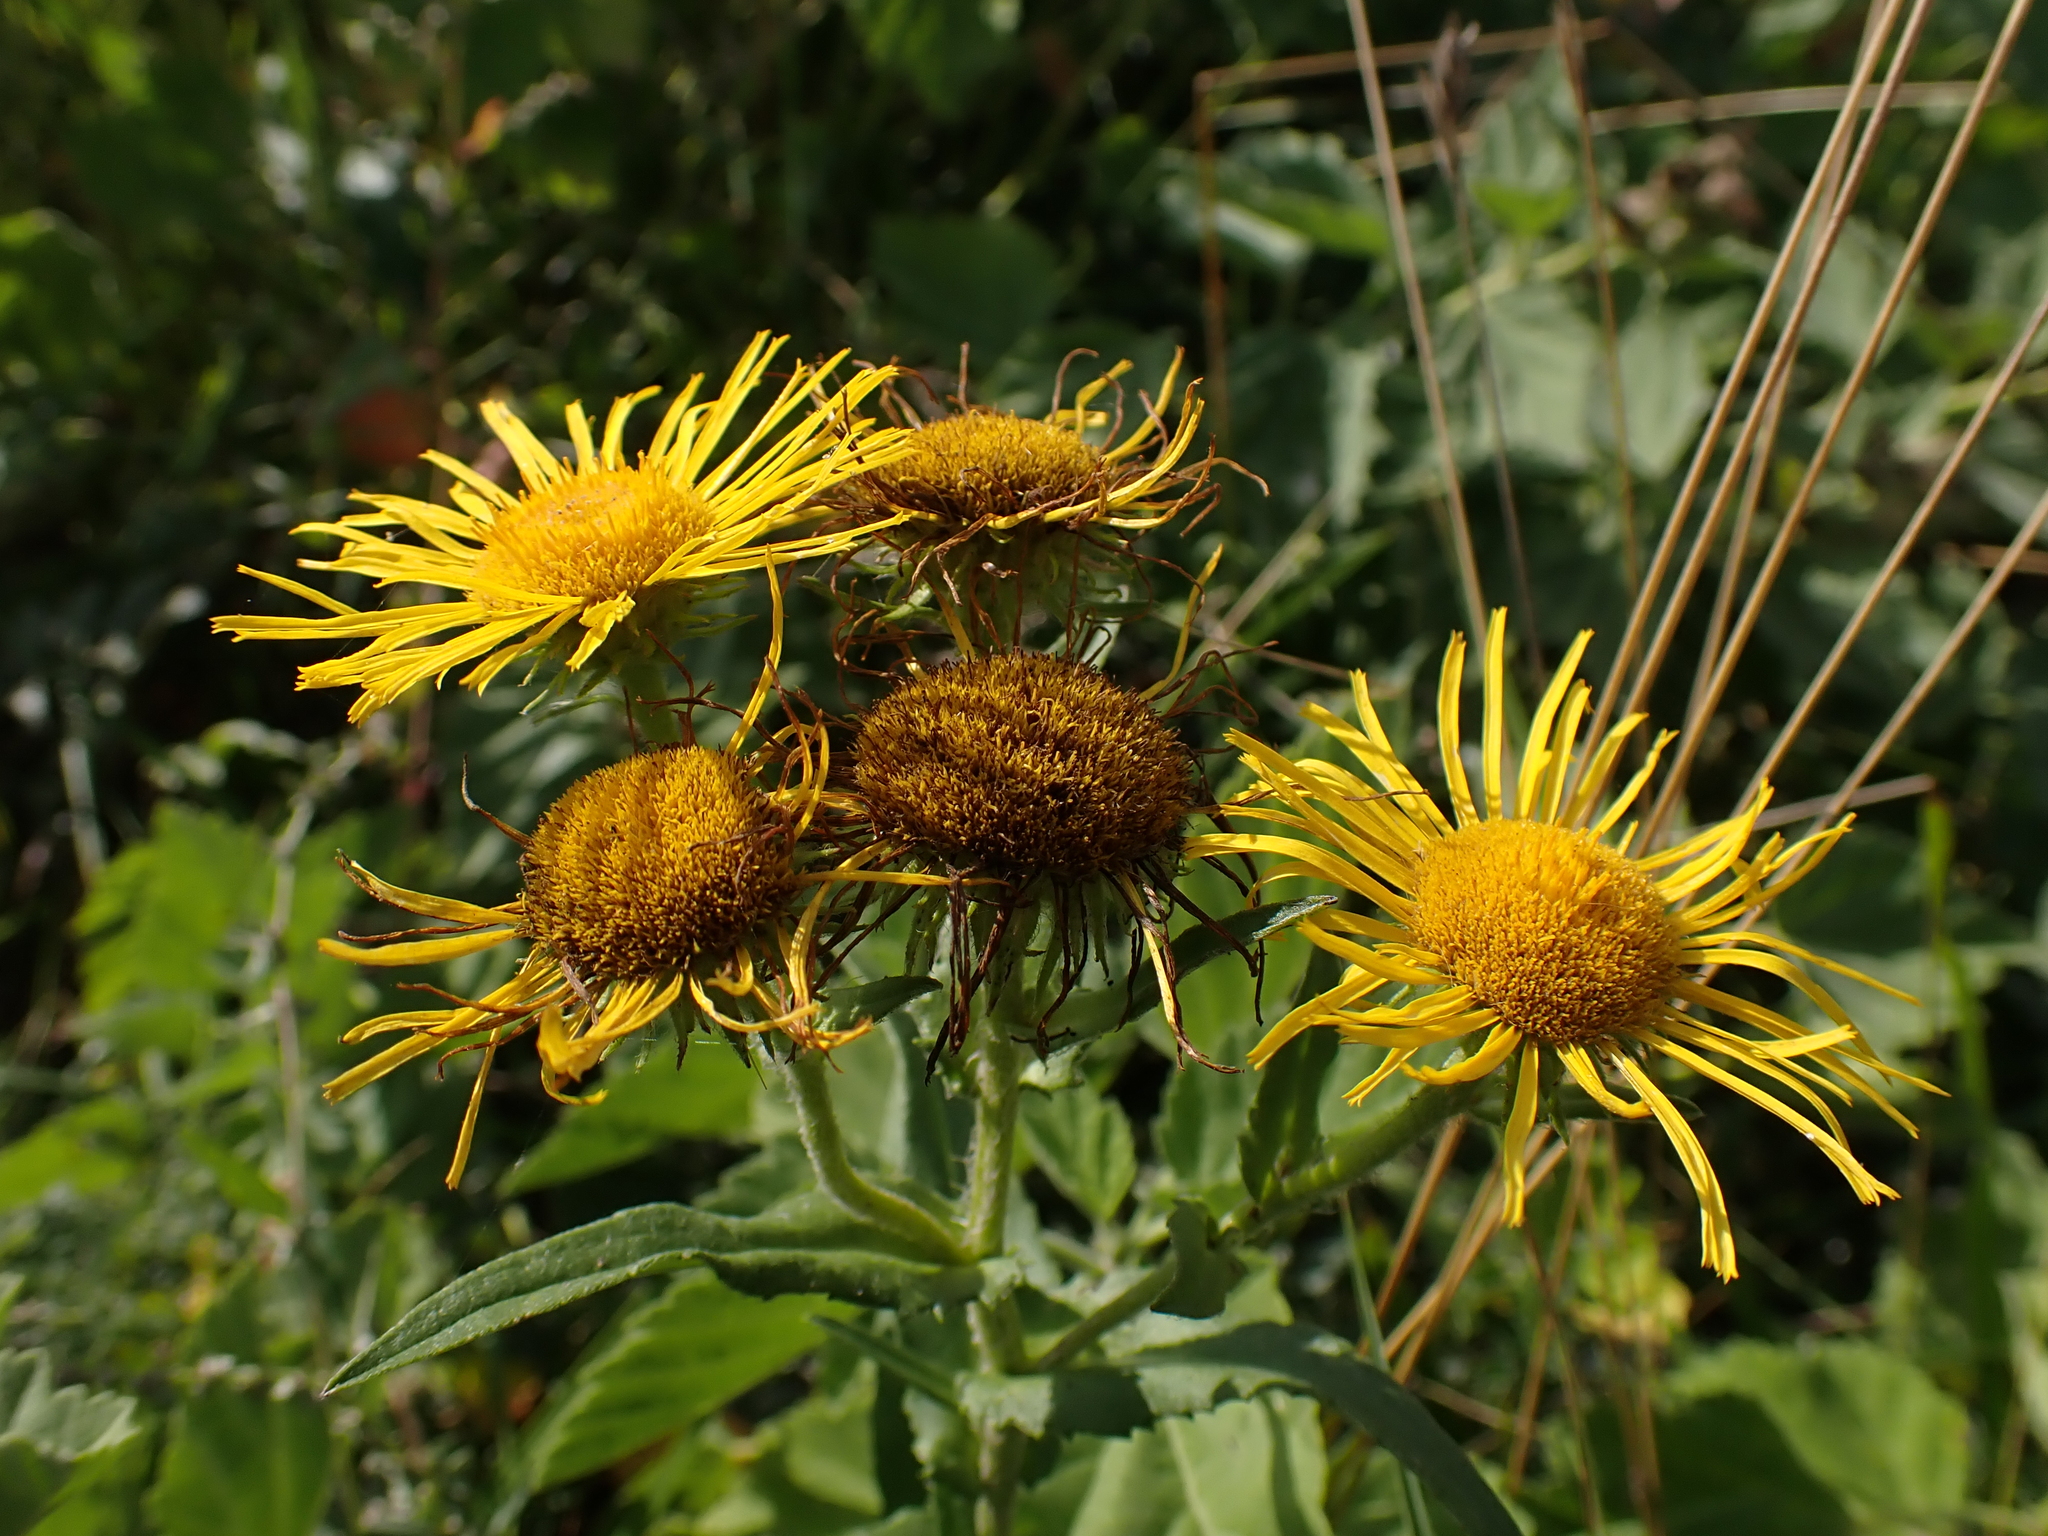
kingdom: Plantae
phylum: Tracheophyta
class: Magnoliopsida
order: Asterales
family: Asteraceae
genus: Pentanema
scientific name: Pentanema britannicum
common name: British elecampane
